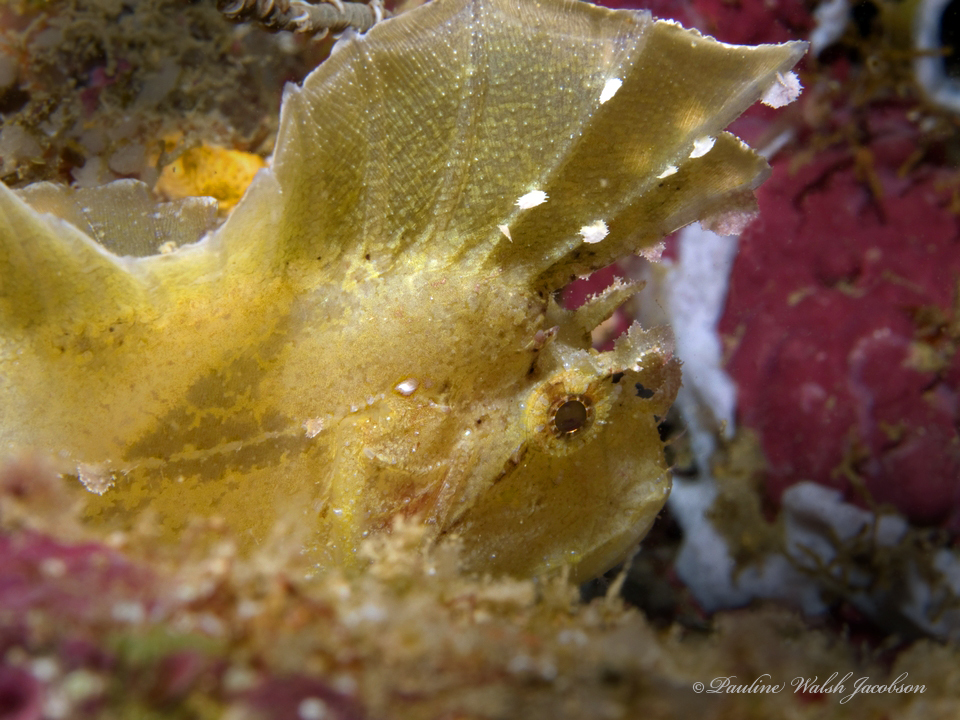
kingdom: Animalia
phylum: Chordata
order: Scorpaeniformes
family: Scorpaenidae
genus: Taenianotus
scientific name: Taenianotus triacanthus
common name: Leaf scorpionfish
